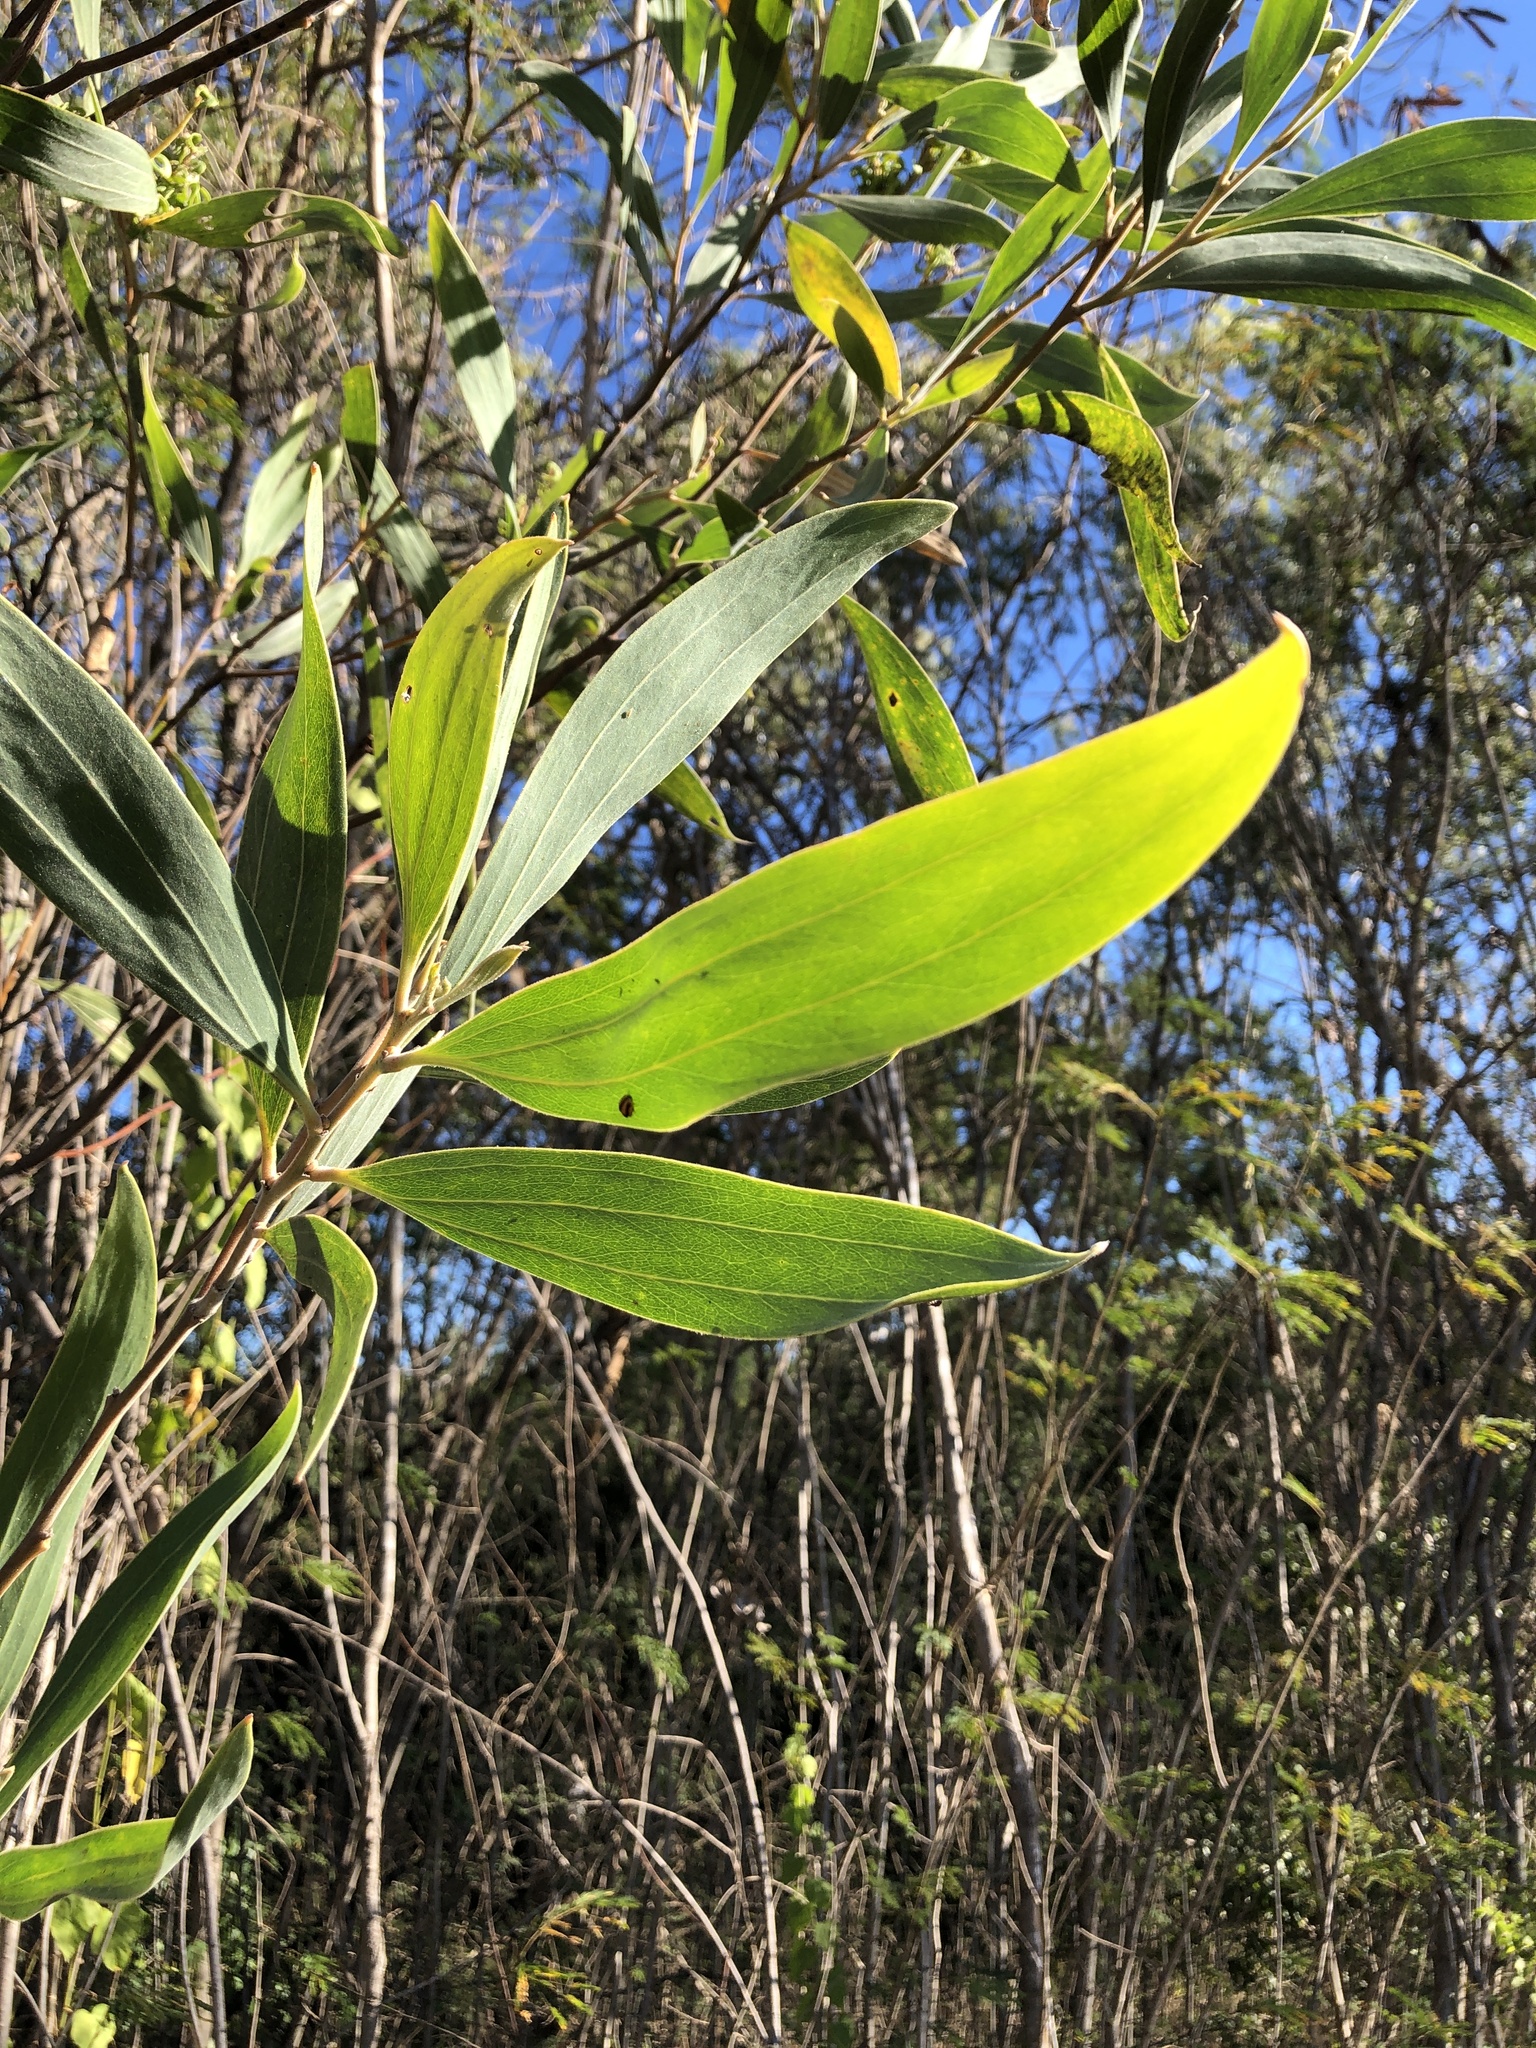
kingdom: Plantae
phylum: Tracheophyta
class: Magnoliopsida
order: Fabales
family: Fabaceae
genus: Acacia
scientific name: Acacia holosericea
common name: Candelabra wattle
